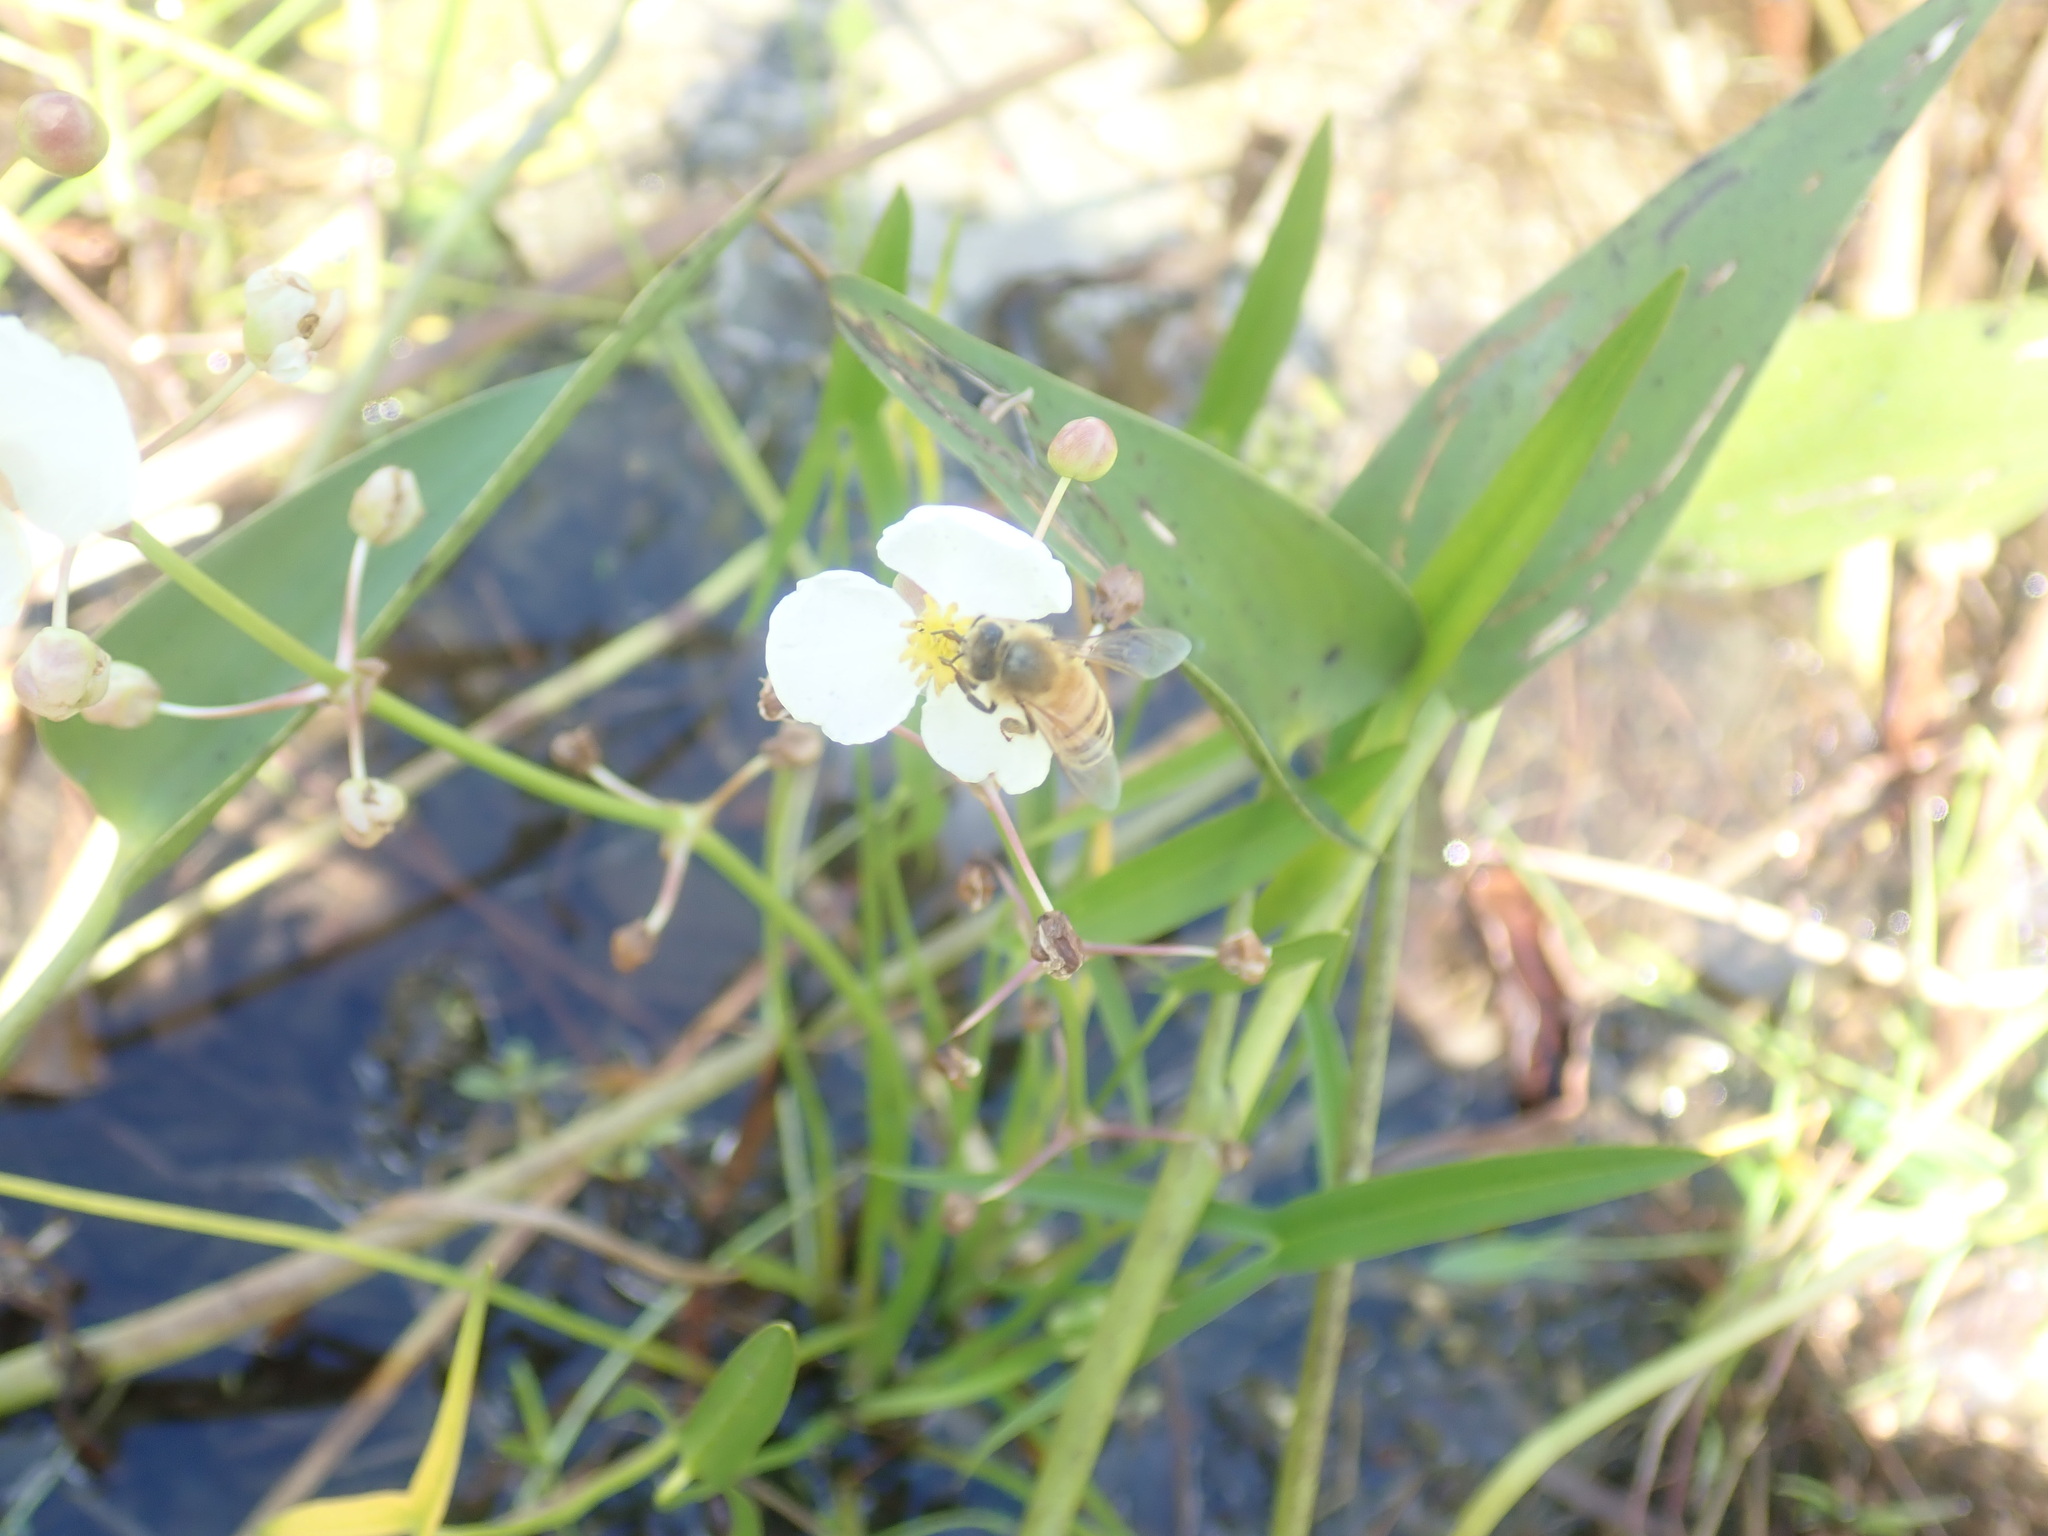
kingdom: Animalia
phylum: Arthropoda
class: Insecta
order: Hymenoptera
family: Apidae
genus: Apis
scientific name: Apis mellifera
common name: Honey bee
